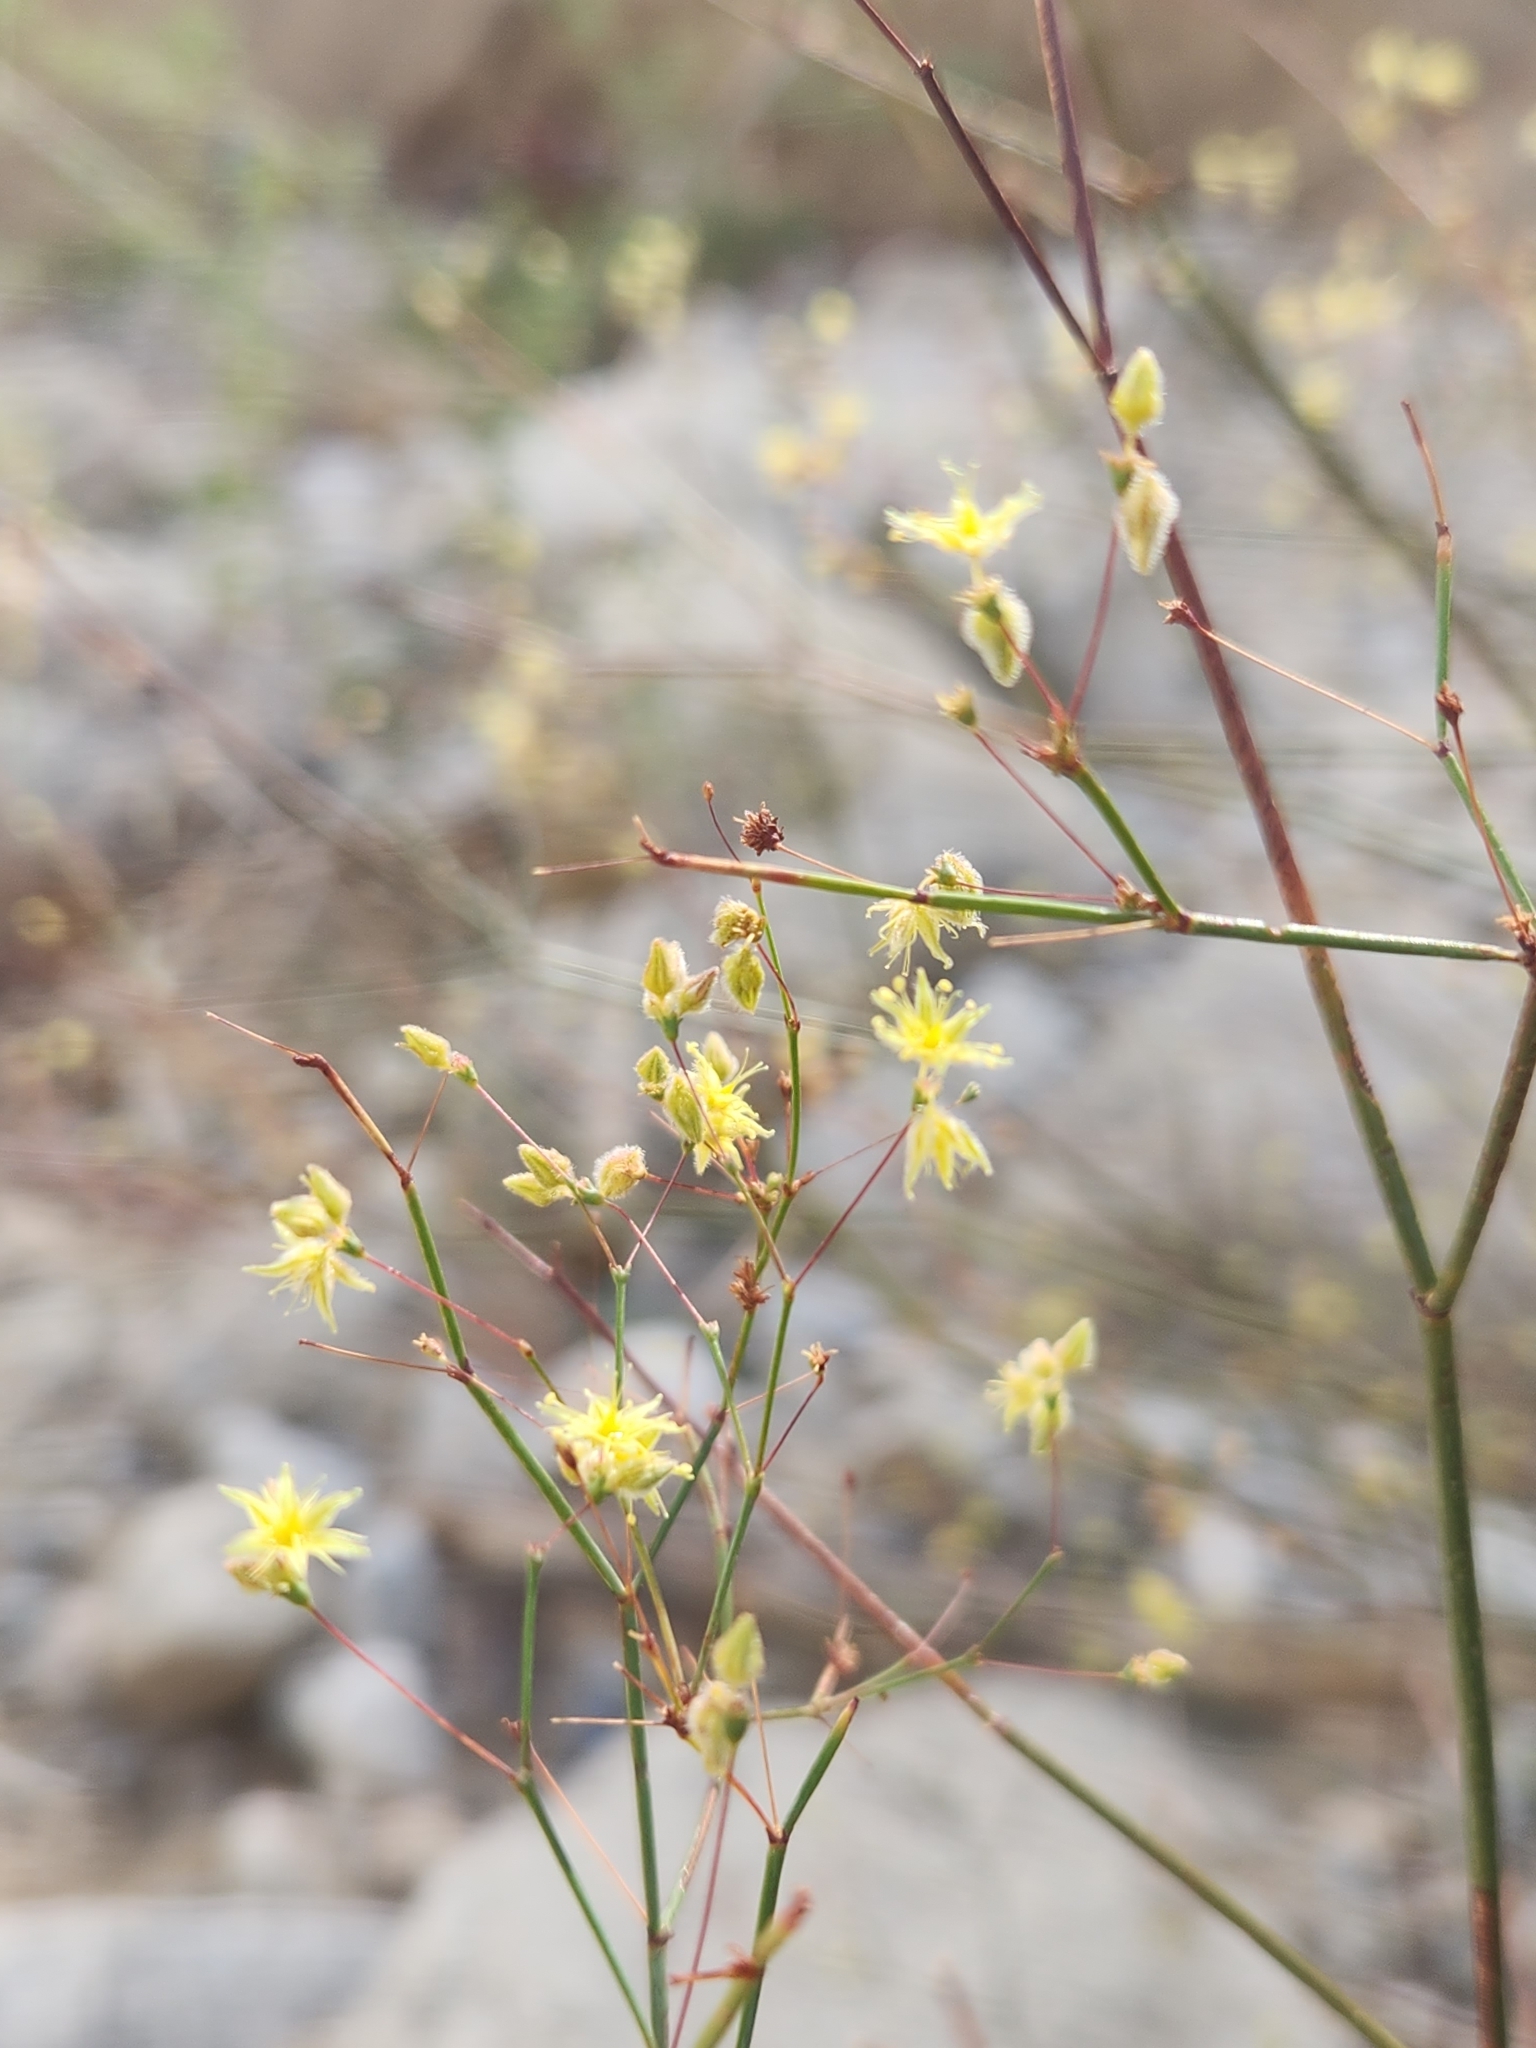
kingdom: Plantae
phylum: Tracheophyta
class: Magnoliopsida
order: Caryophyllales
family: Polygonaceae
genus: Eriogonum
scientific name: Eriogonum inflatum
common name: Desert trumpet
